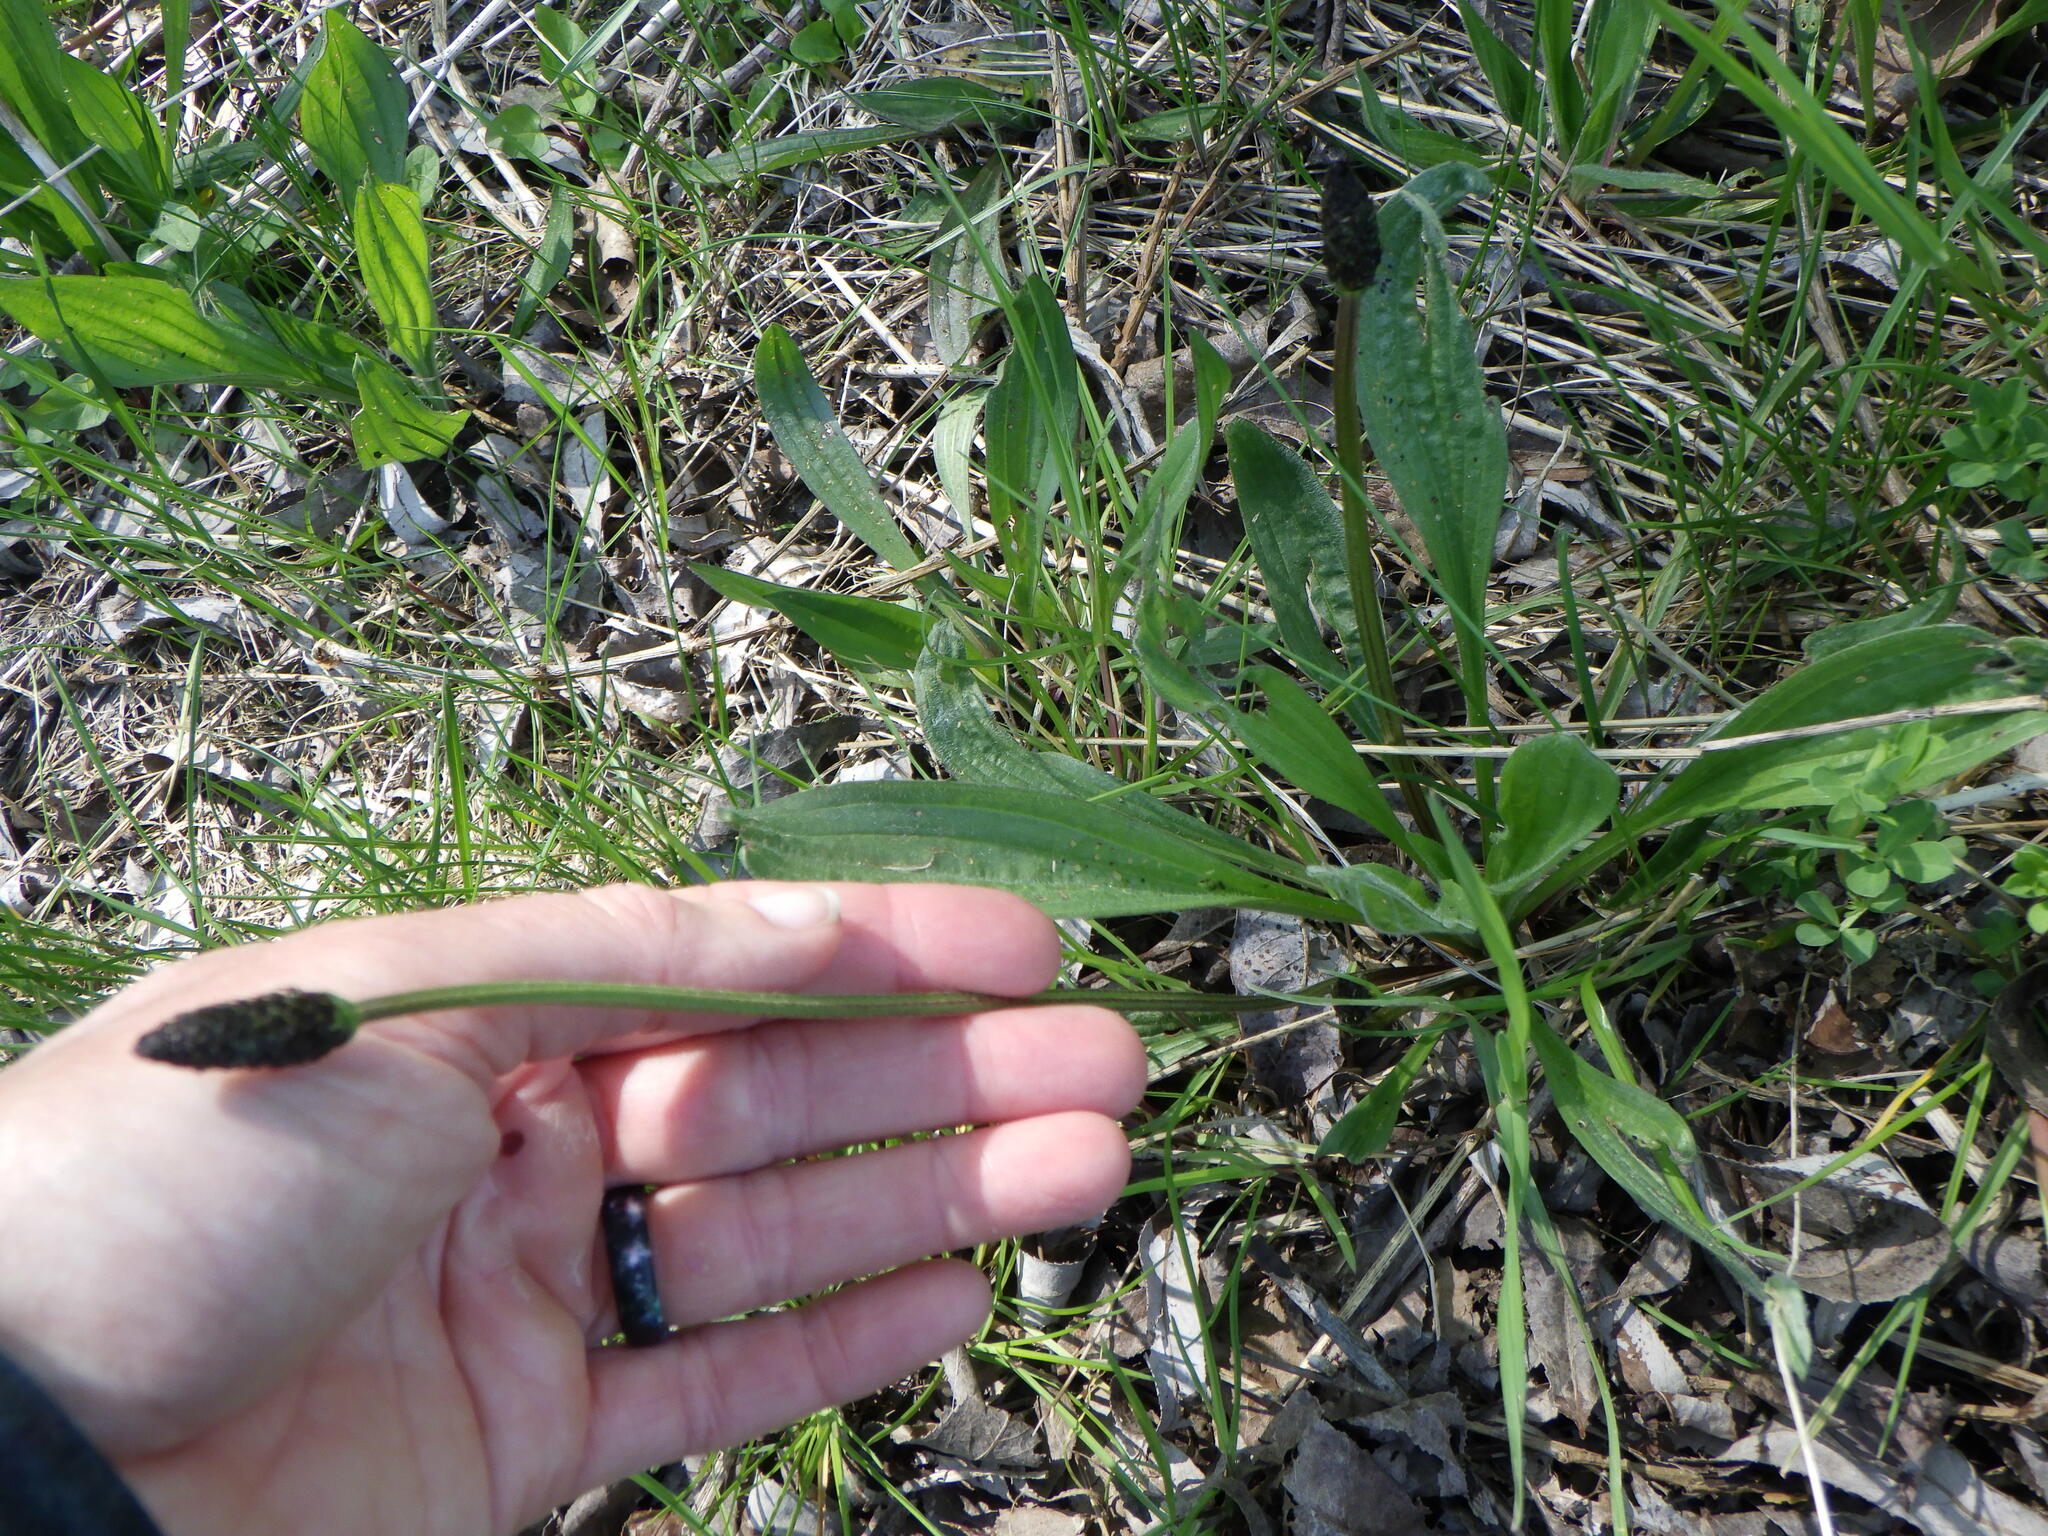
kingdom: Plantae
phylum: Tracheophyta
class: Magnoliopsida
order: Lamiales
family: Plantaginaceae
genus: Plantago
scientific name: Plantago lanceolata
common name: Ribwort plantain
